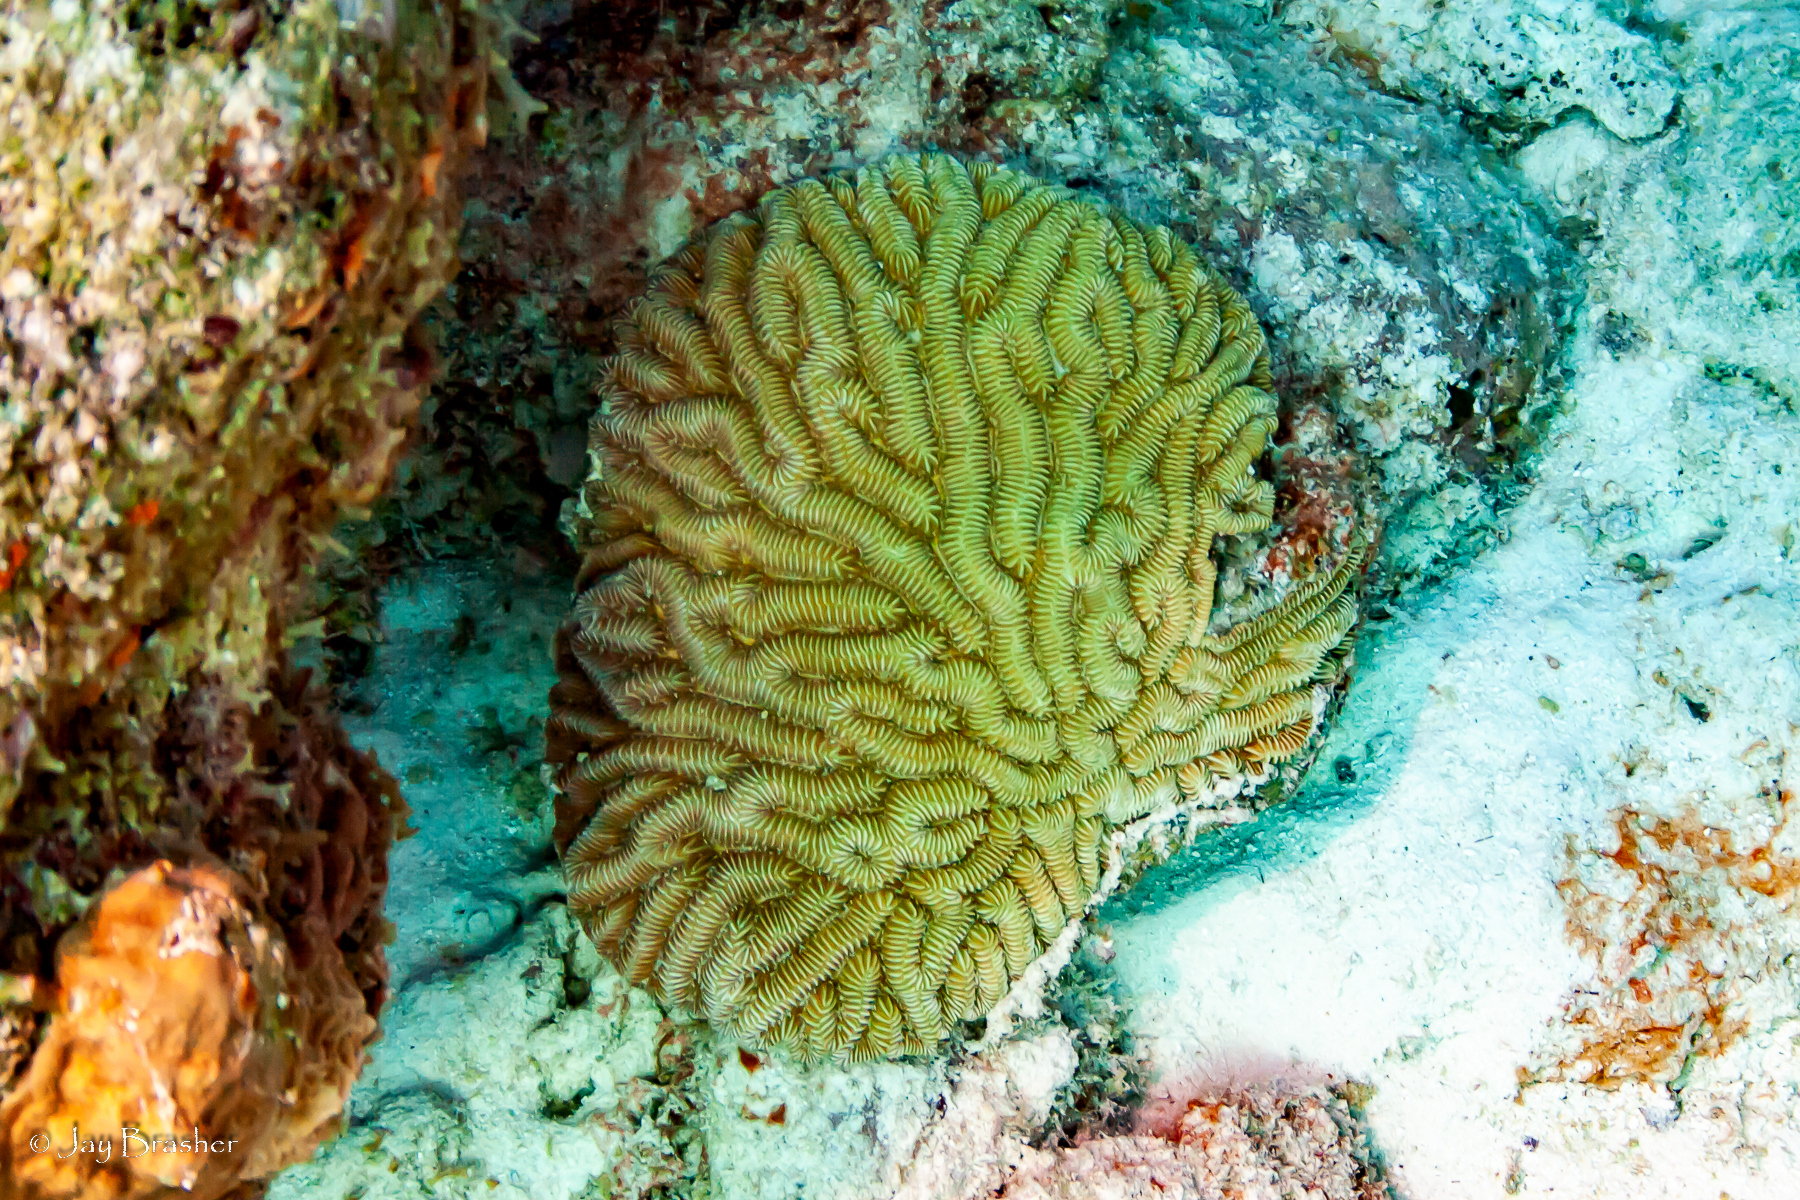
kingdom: Animalia
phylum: Cnidaria
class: Anthozoa
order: Scleractinia
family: Meandrinidae
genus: Meandrina
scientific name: Meandrina meandrites
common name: Maze coral
